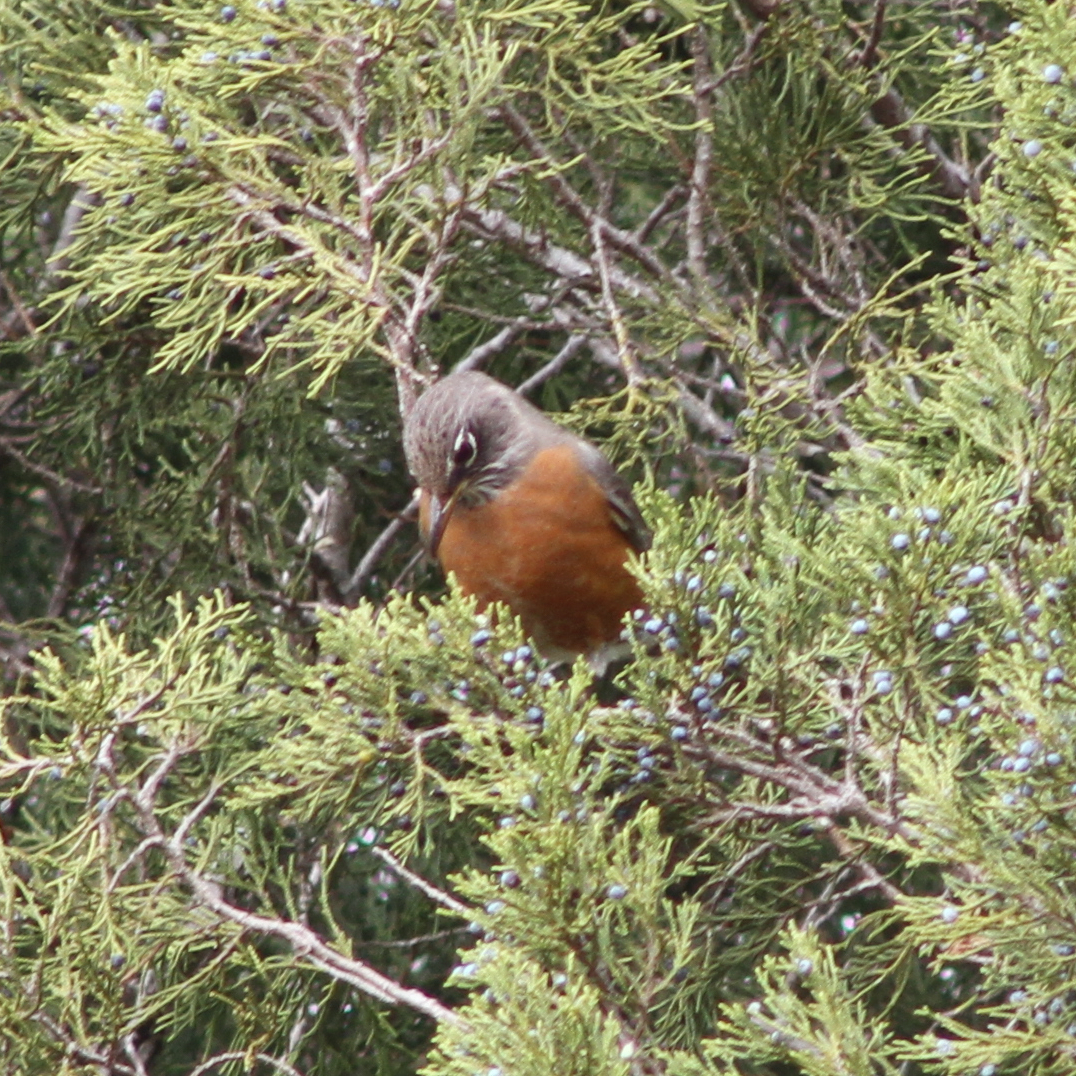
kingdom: Animalia
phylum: Chordata
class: Aves
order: Passeriformes
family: Turdidae
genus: Turdus
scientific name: Turdus migratorius
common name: American robin
